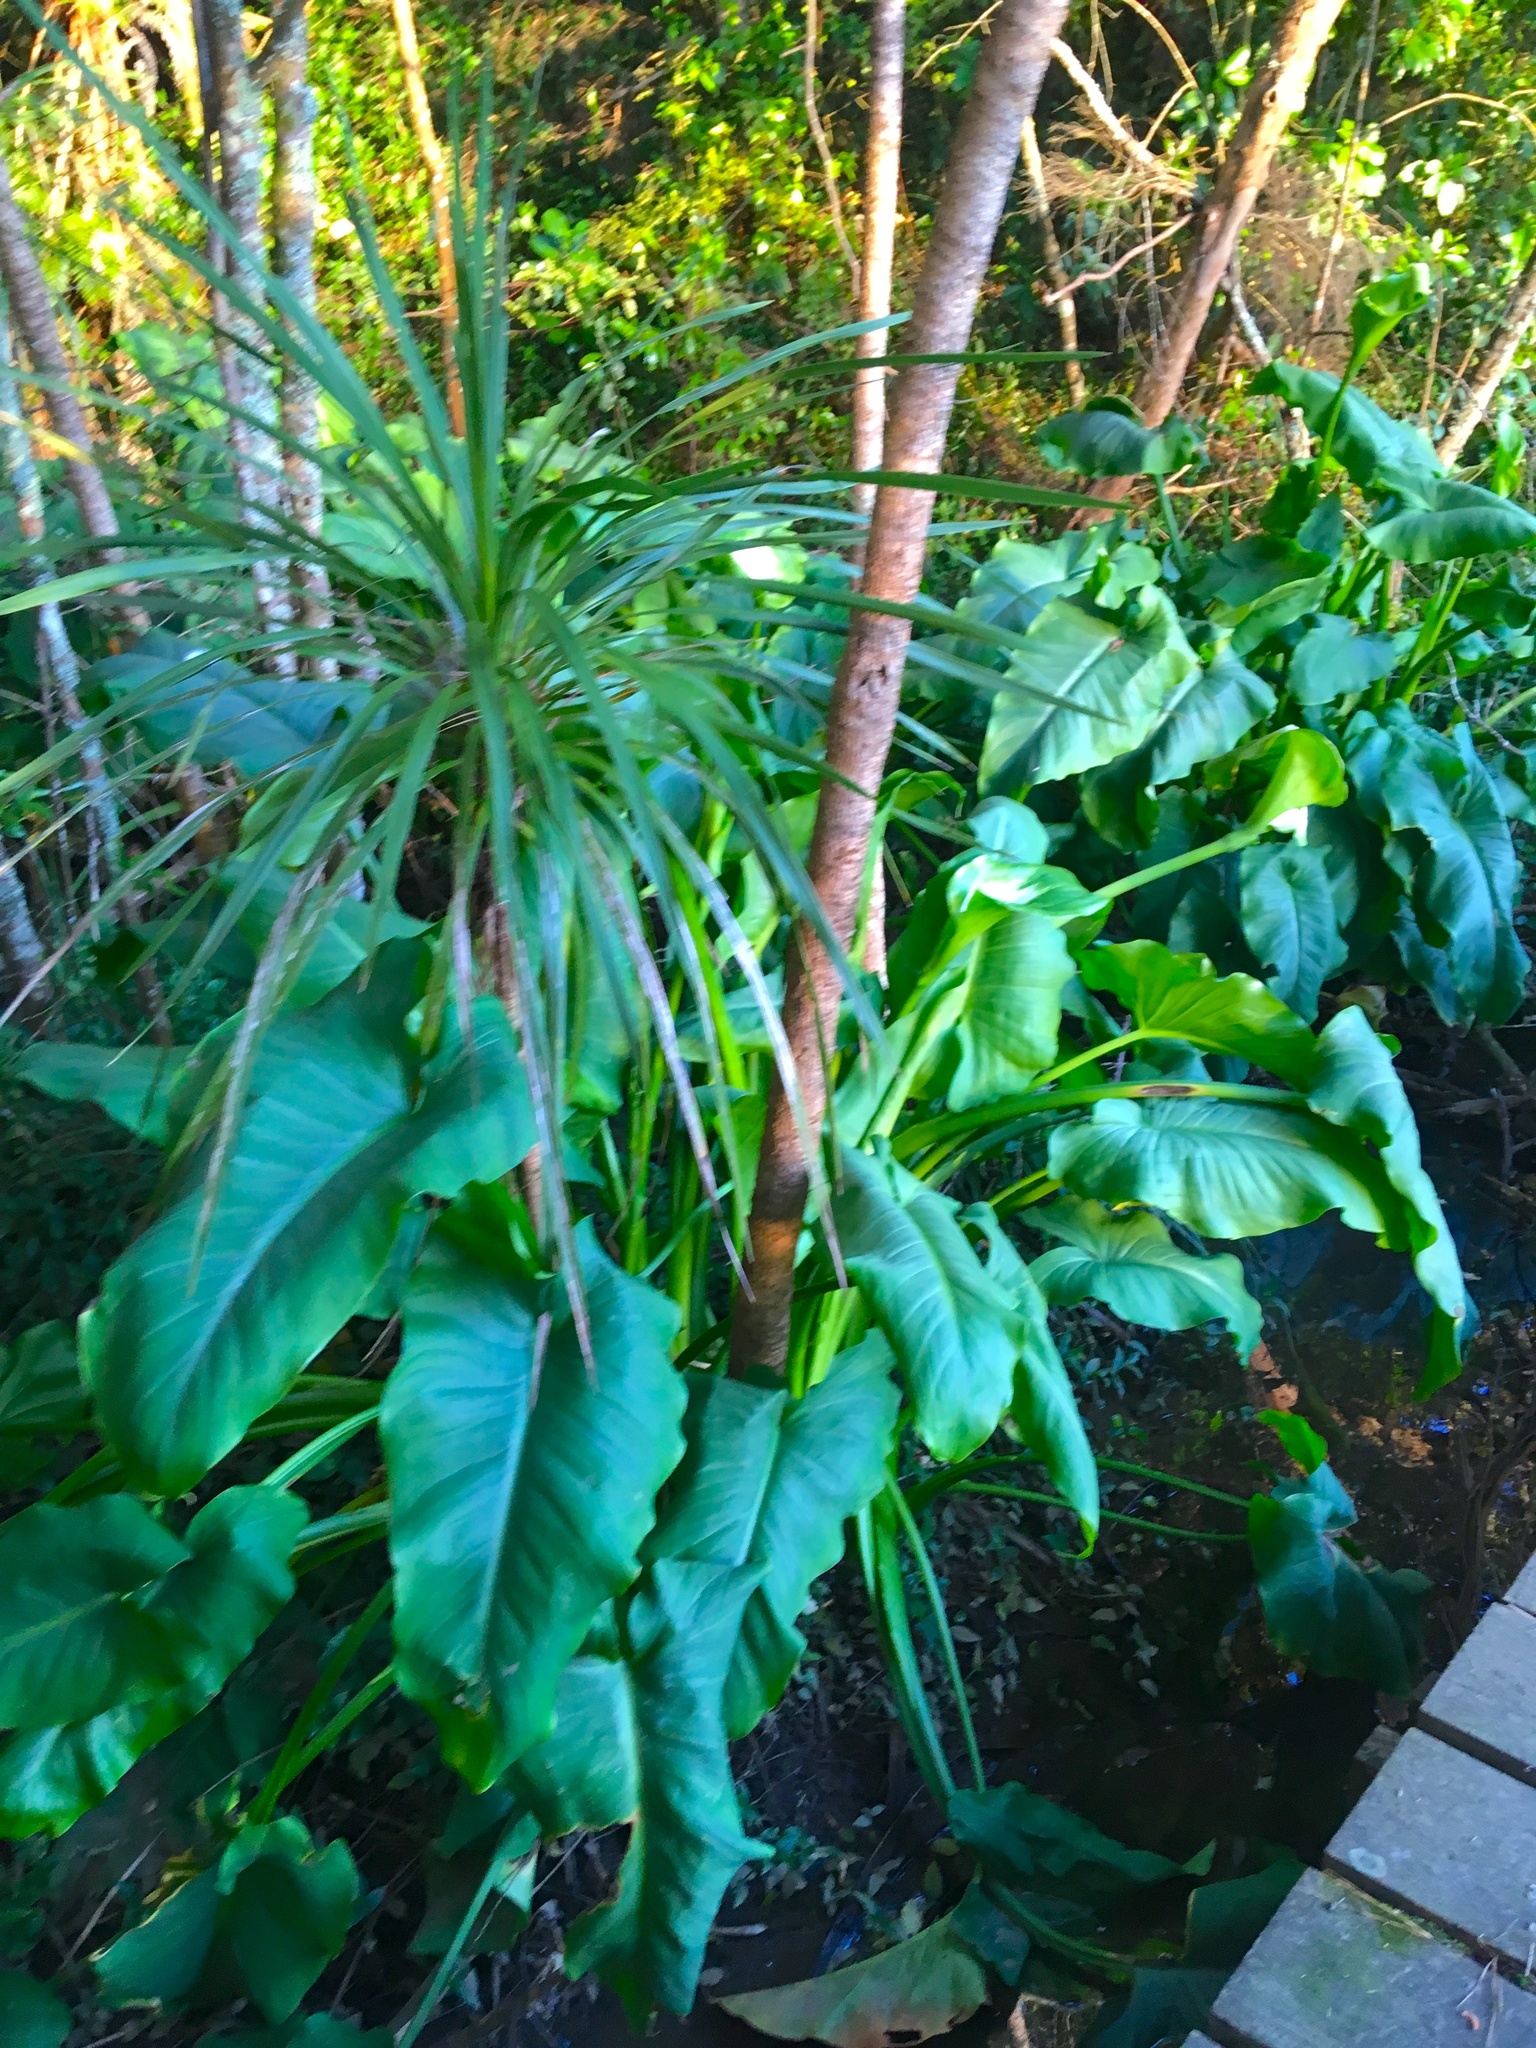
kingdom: Plantae
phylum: Tracheophyta
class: Liliopsida
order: Asparagales
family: Asparagaceae
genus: Cordyline
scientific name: Cordyline australis
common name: Cabbage-palm
